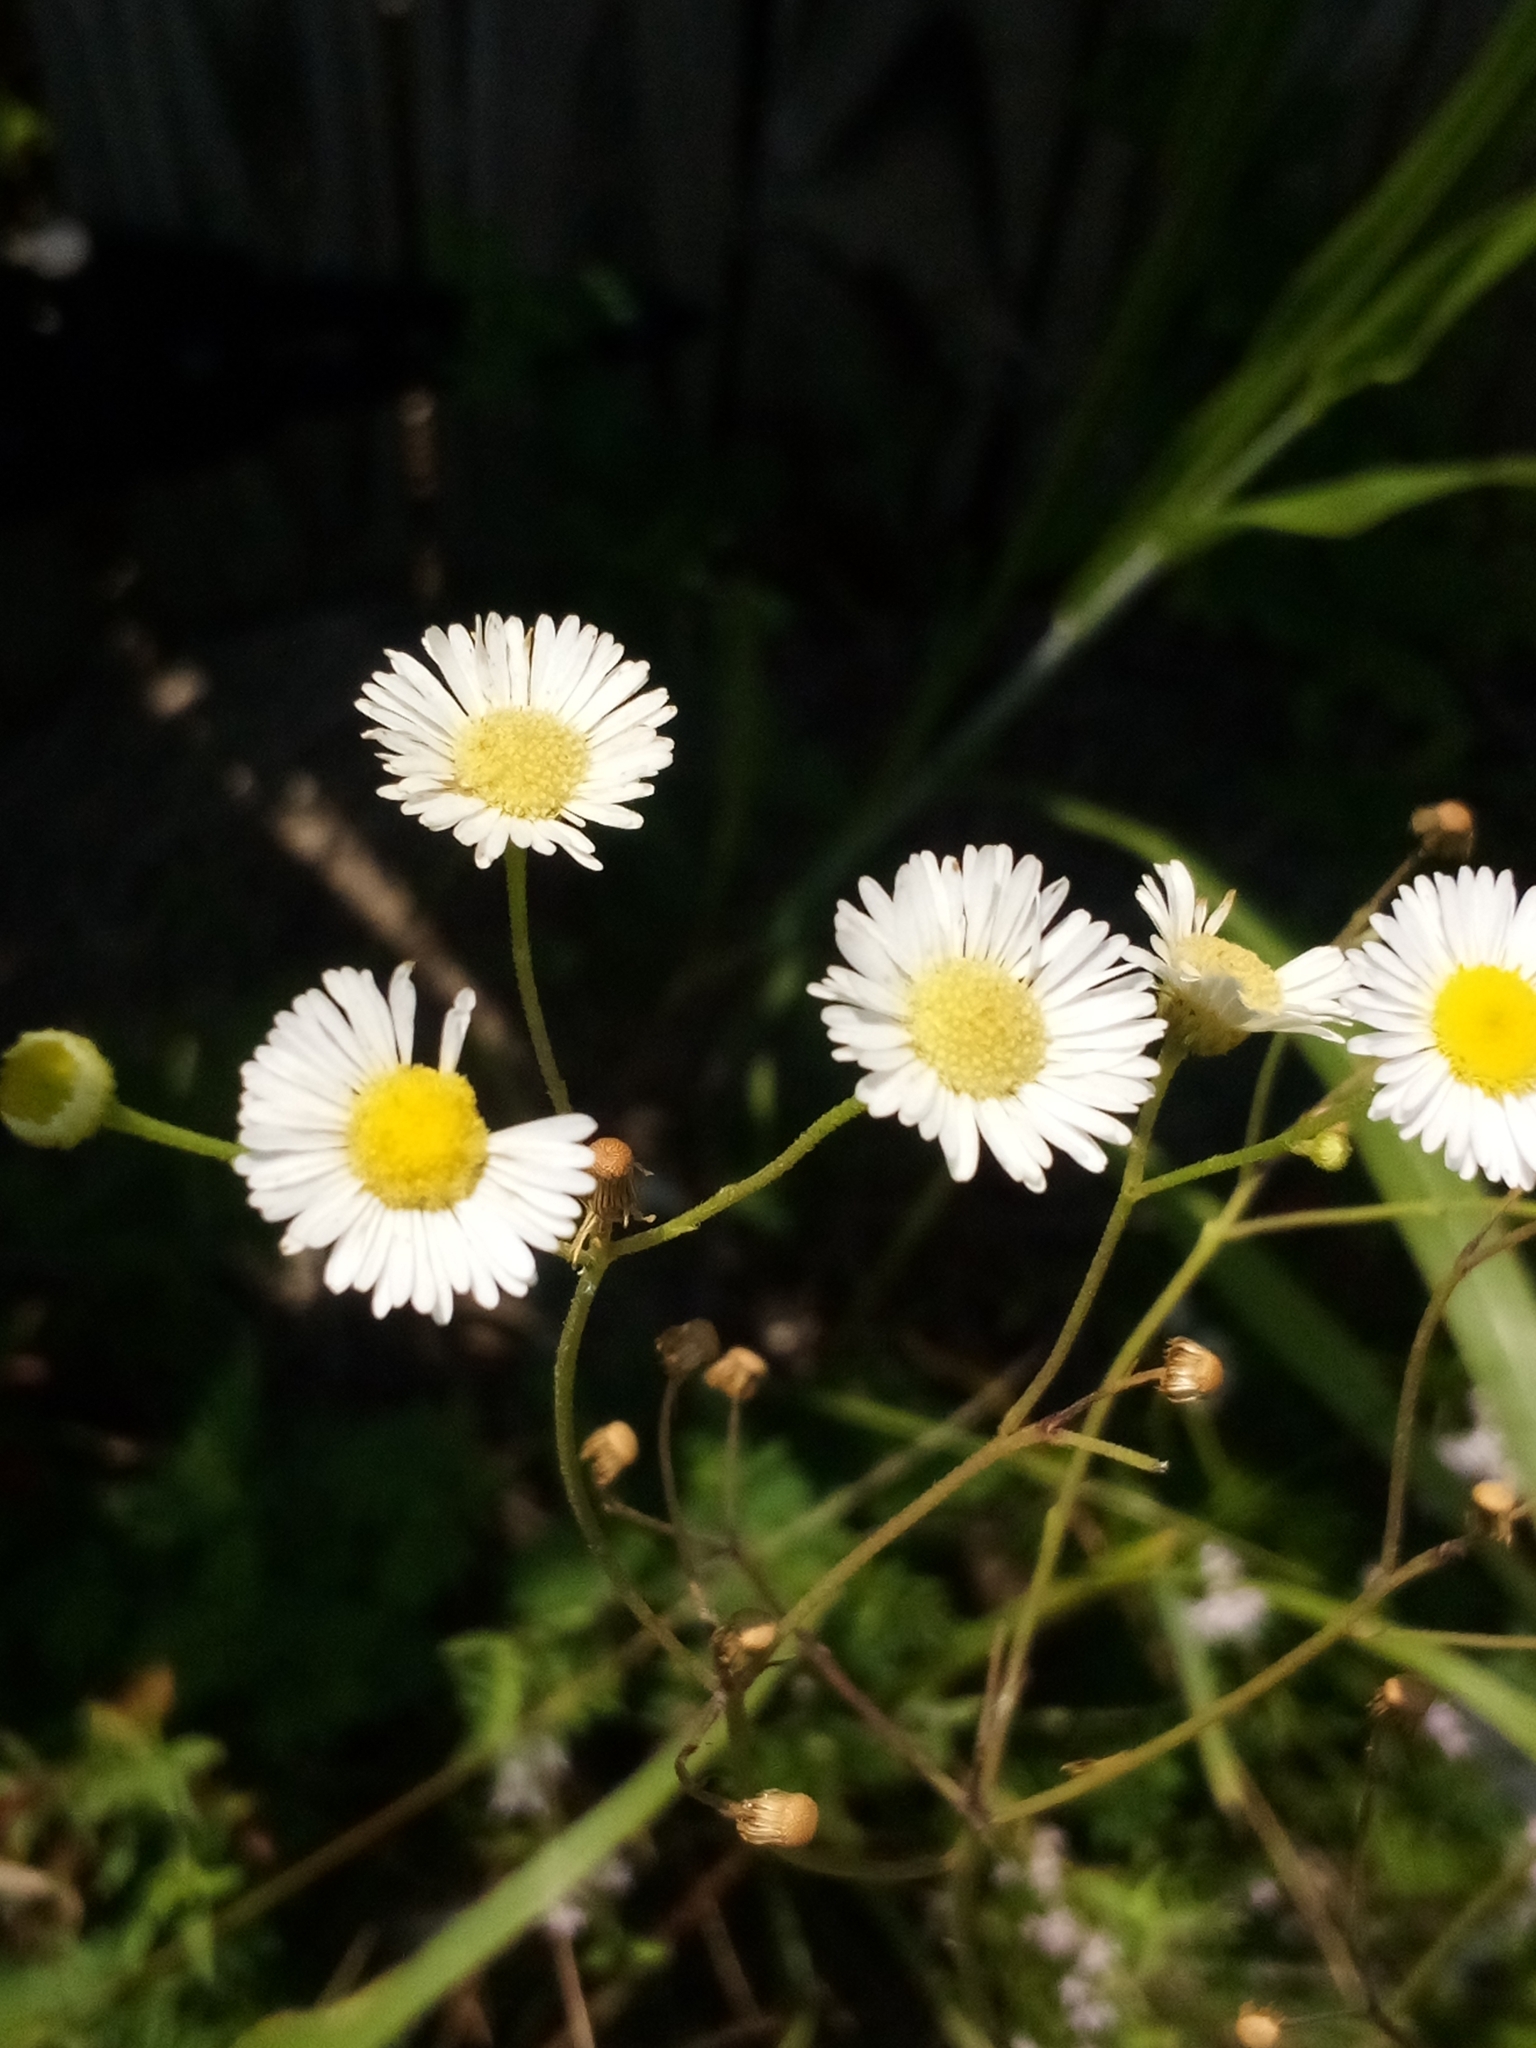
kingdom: Plantae
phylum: Tracheophyta
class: Magnoliopsida
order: Asterales
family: Asteraceae
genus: Erigeron
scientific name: Erigeron
